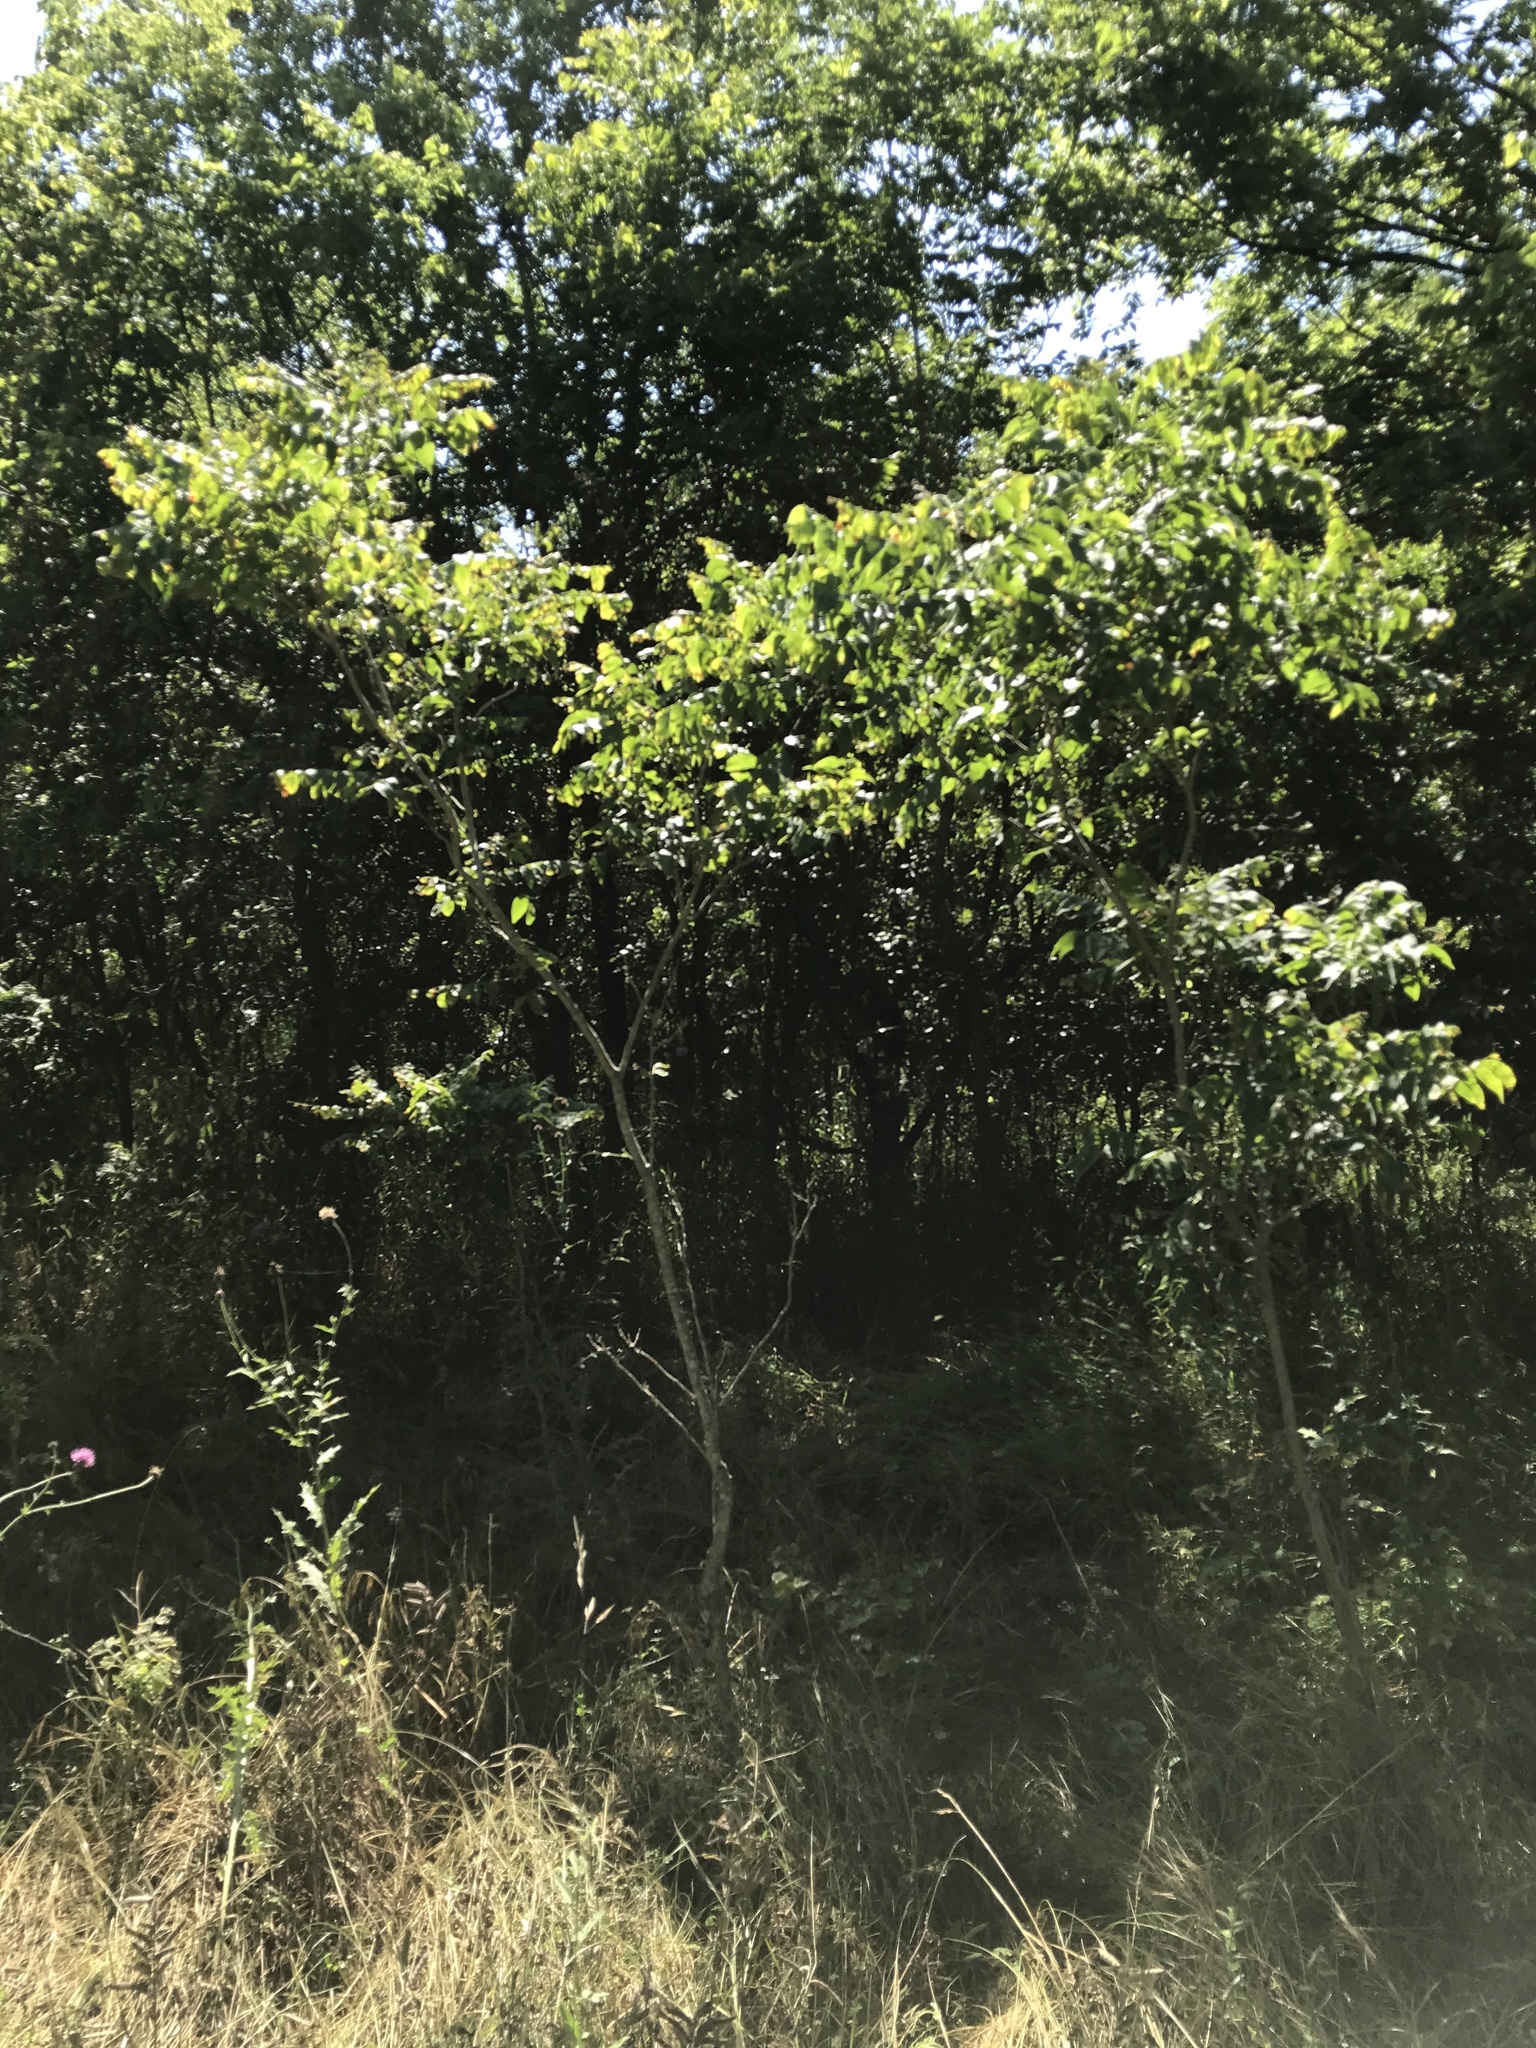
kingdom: Plantae
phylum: Tracheophyta
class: Magnoliopsida
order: Sapindales
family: Sapindaceae
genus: Sapindus
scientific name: Sapindus drummondii
